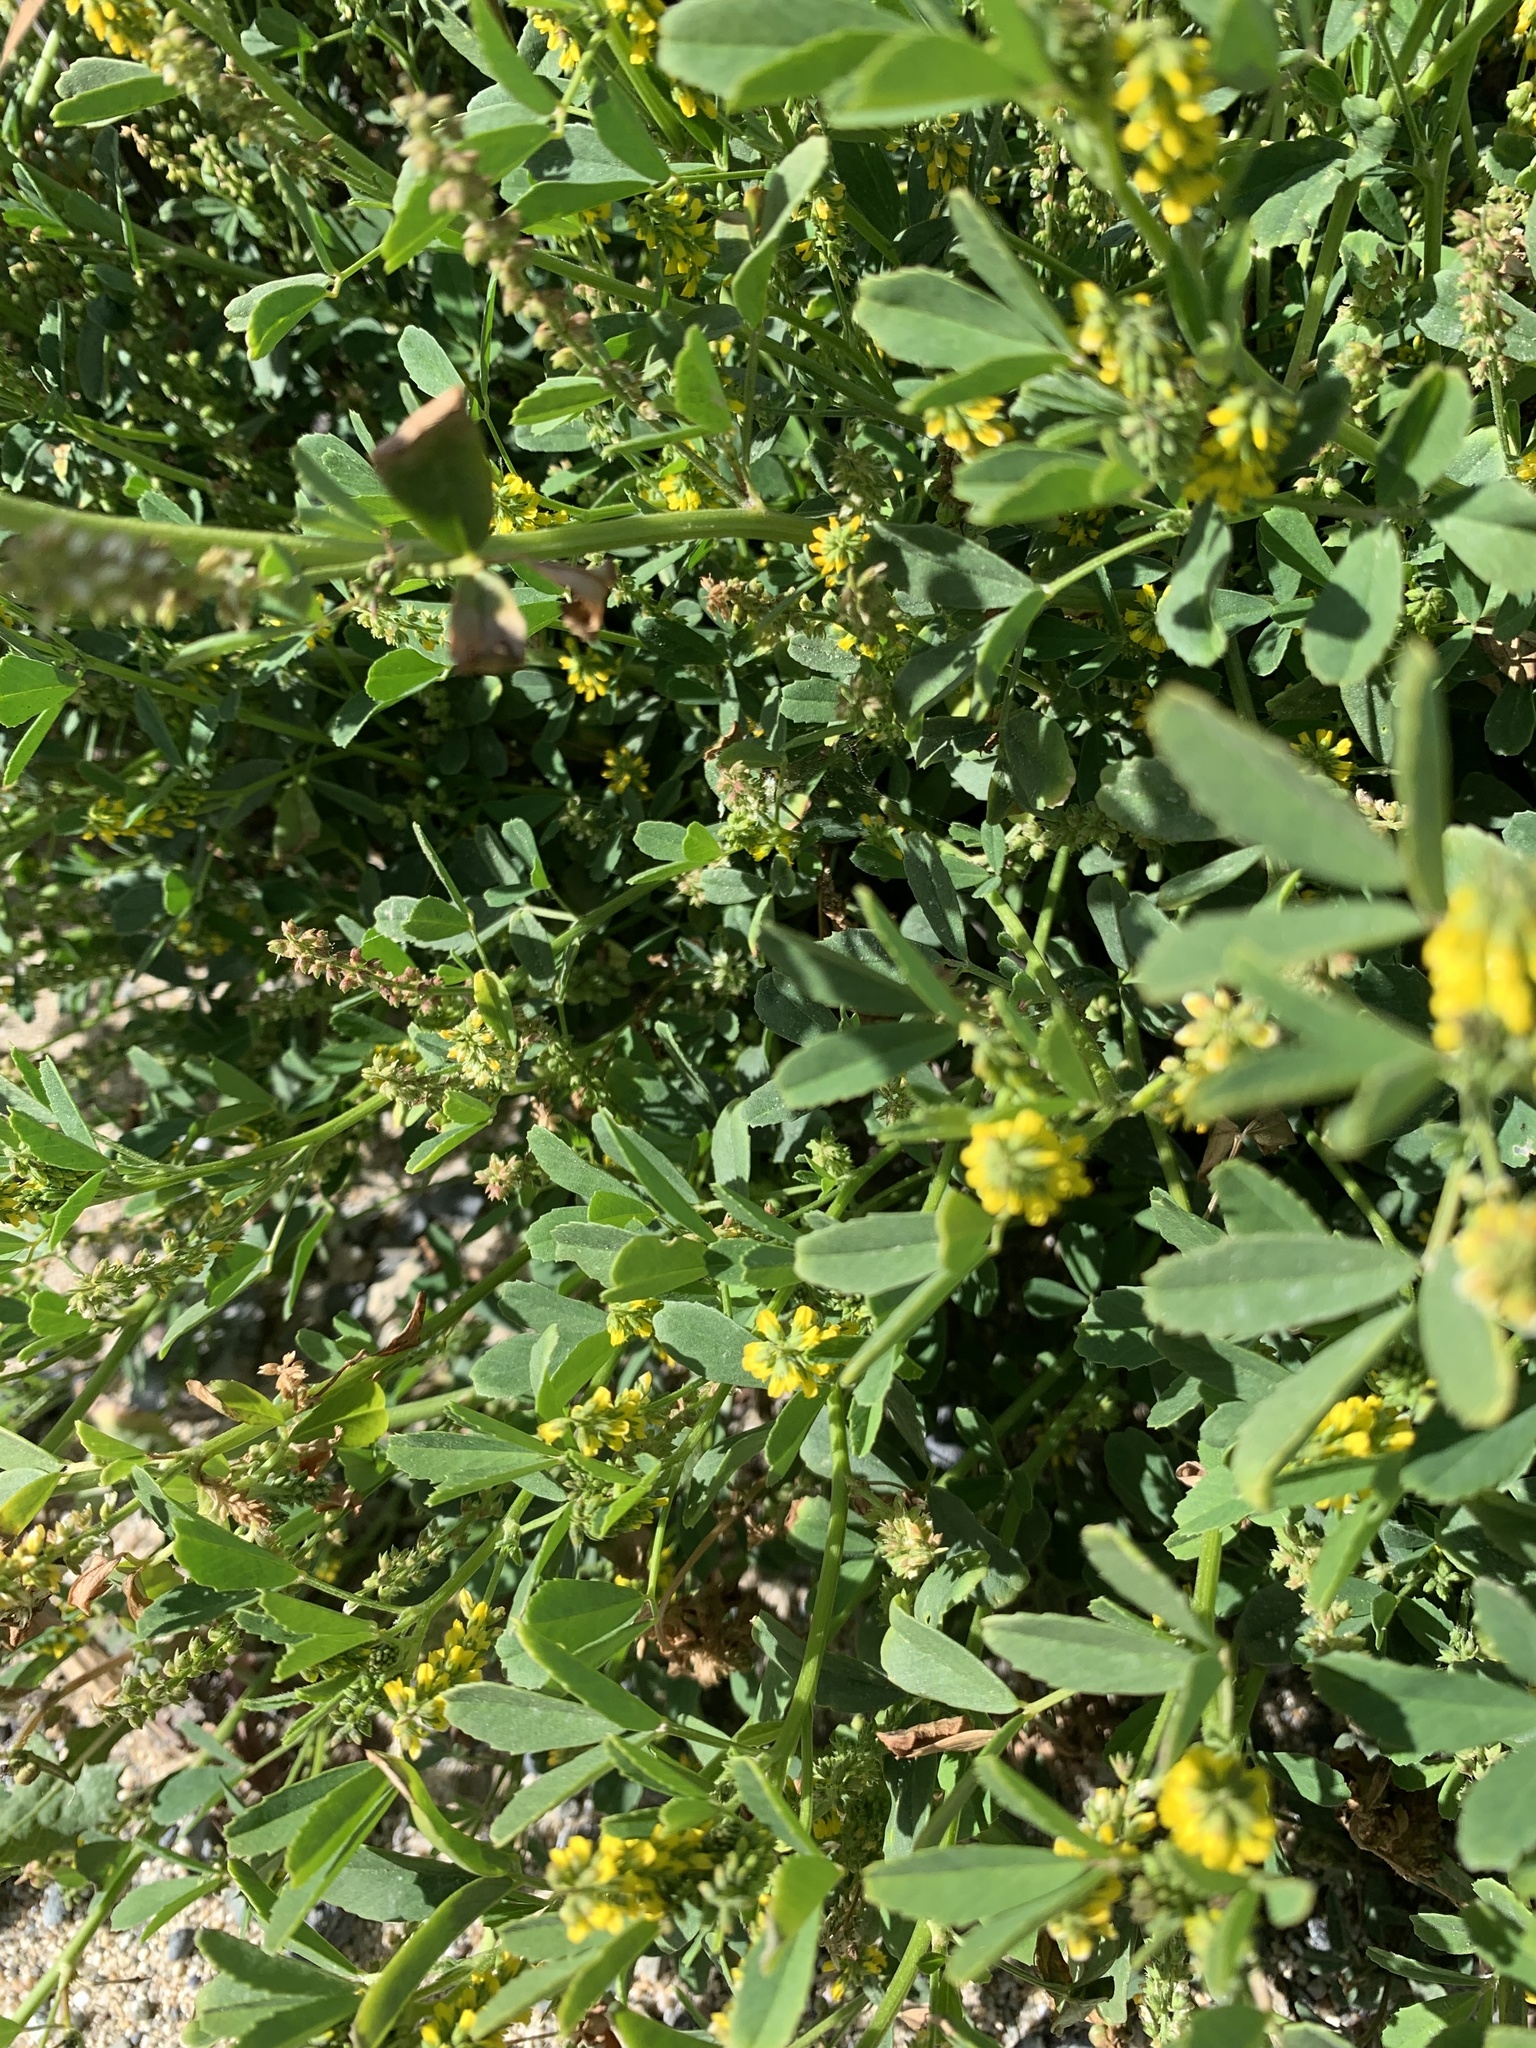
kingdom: Plantae
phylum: Tracheophyta
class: Magnoliopsida
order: Fabales
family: Fabaceae
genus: Melilotus
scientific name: Melilotus indicus
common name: Small melilot
